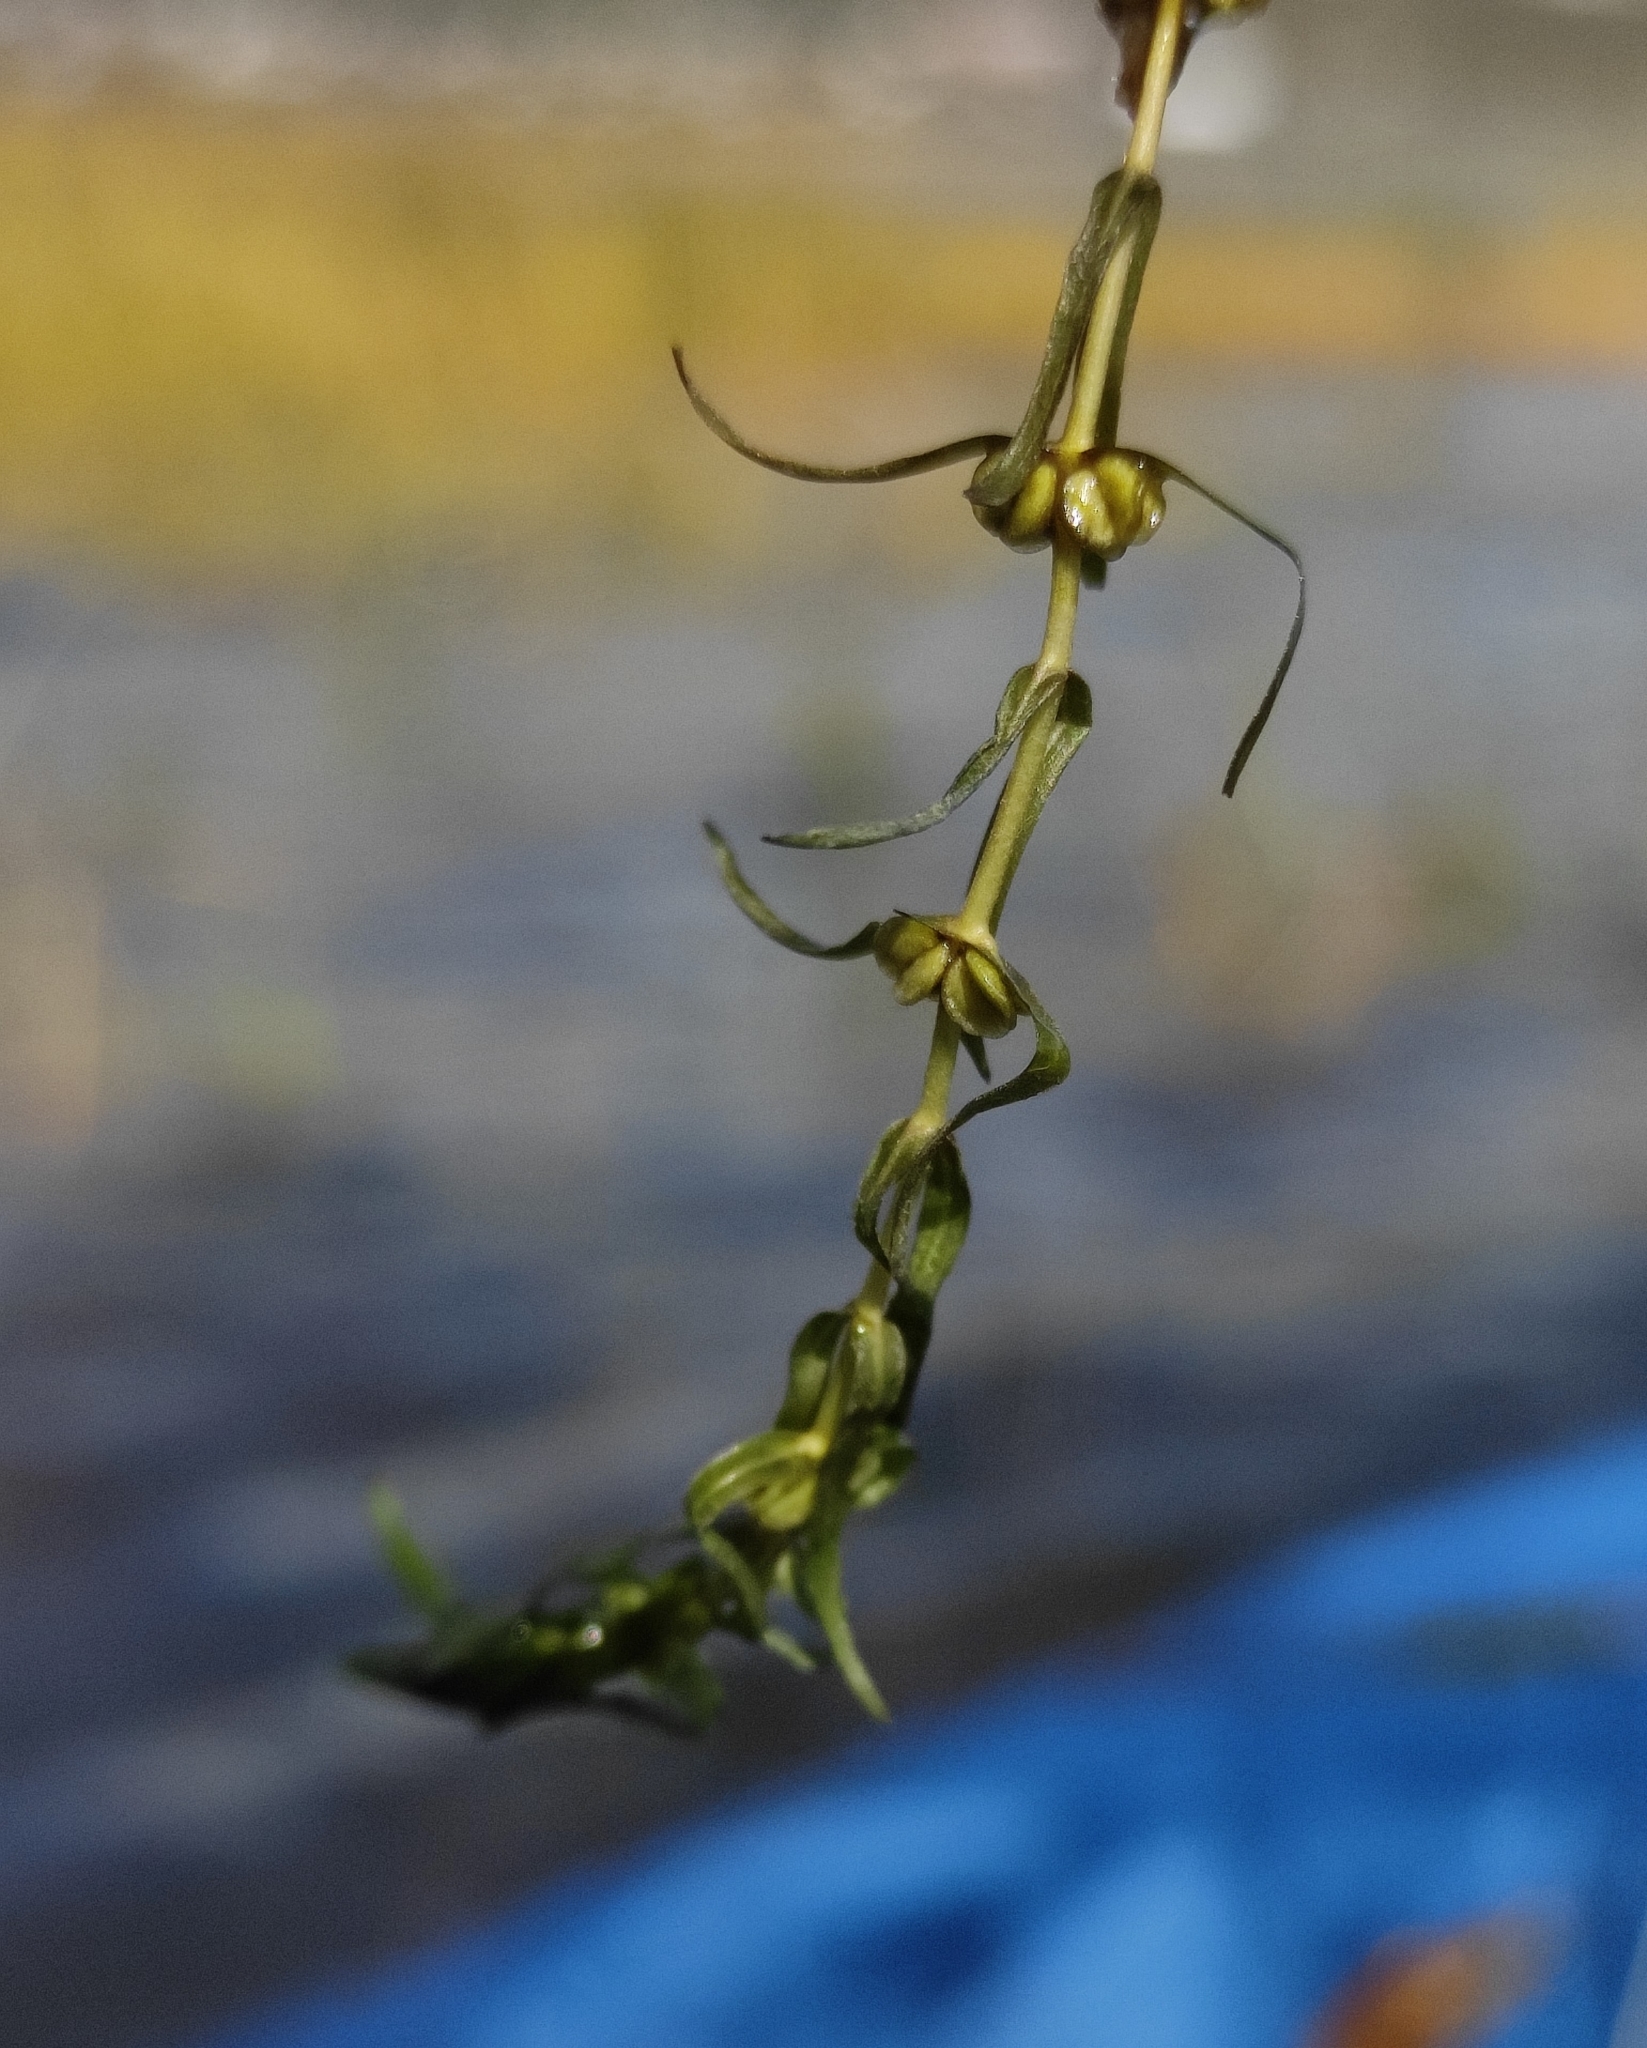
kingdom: Plantae
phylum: Tracheophyta
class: Magnoliopsida
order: Lamiales
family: Plantaginaceae
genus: Callitriche
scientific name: Callitriche palustris
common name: Spring water-starwort
